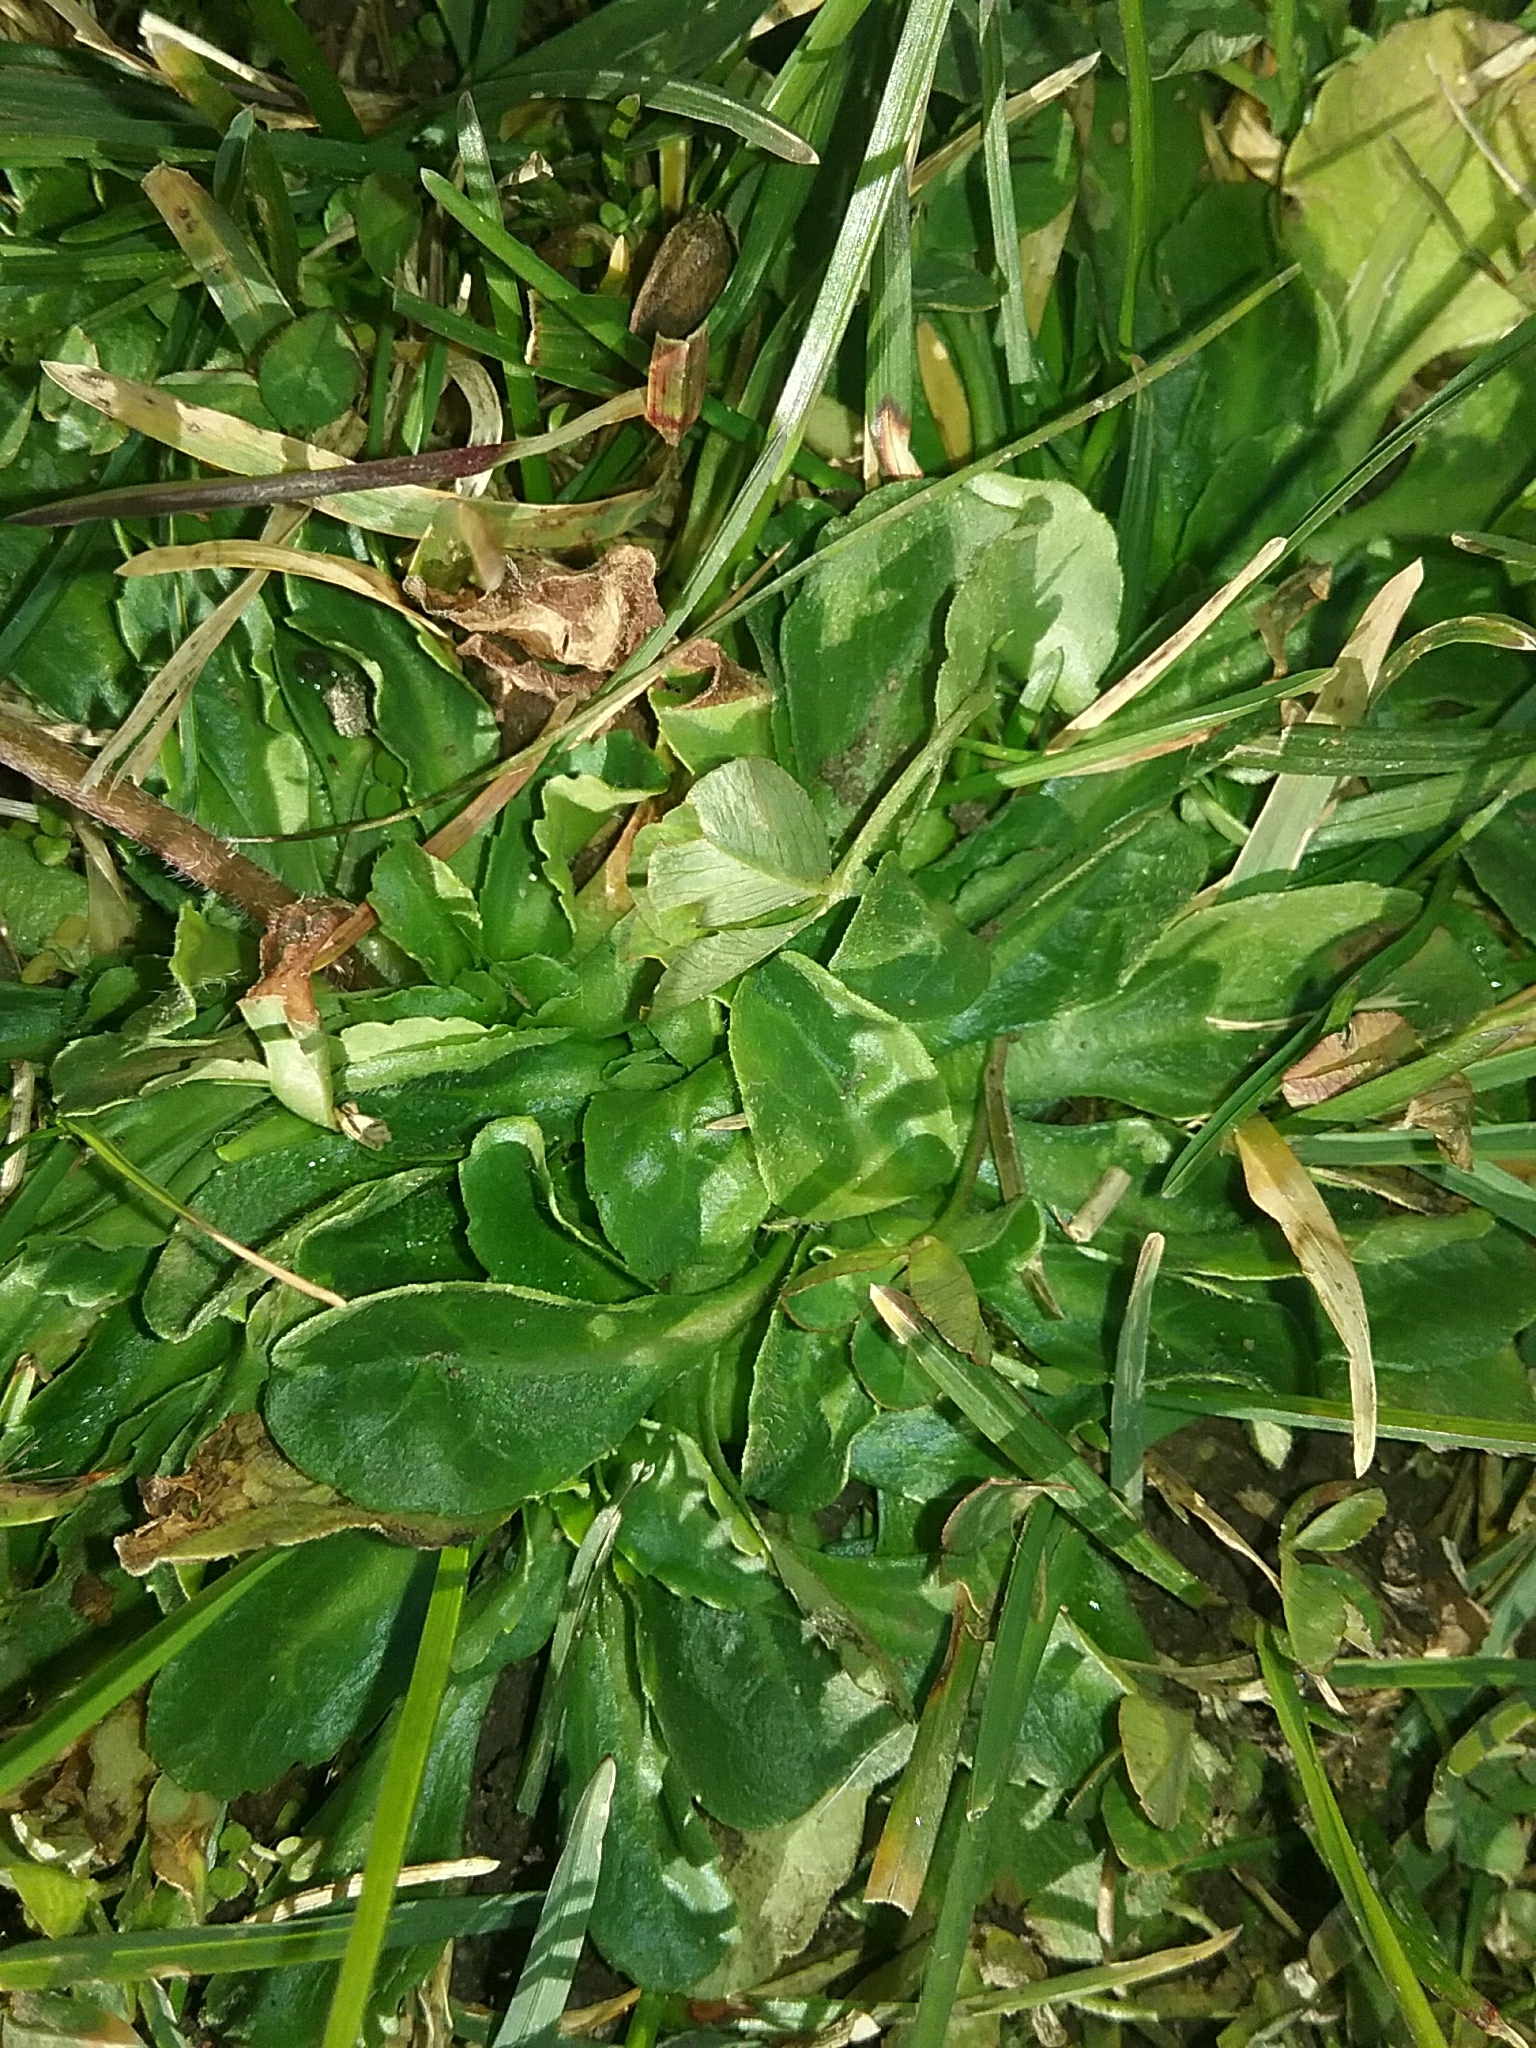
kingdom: Plantae
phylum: Tracheophyta
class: Magnoliopsida
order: Asterales
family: Asteraceae
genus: Bellis
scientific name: Bellis perennis
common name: Lawndaisy
